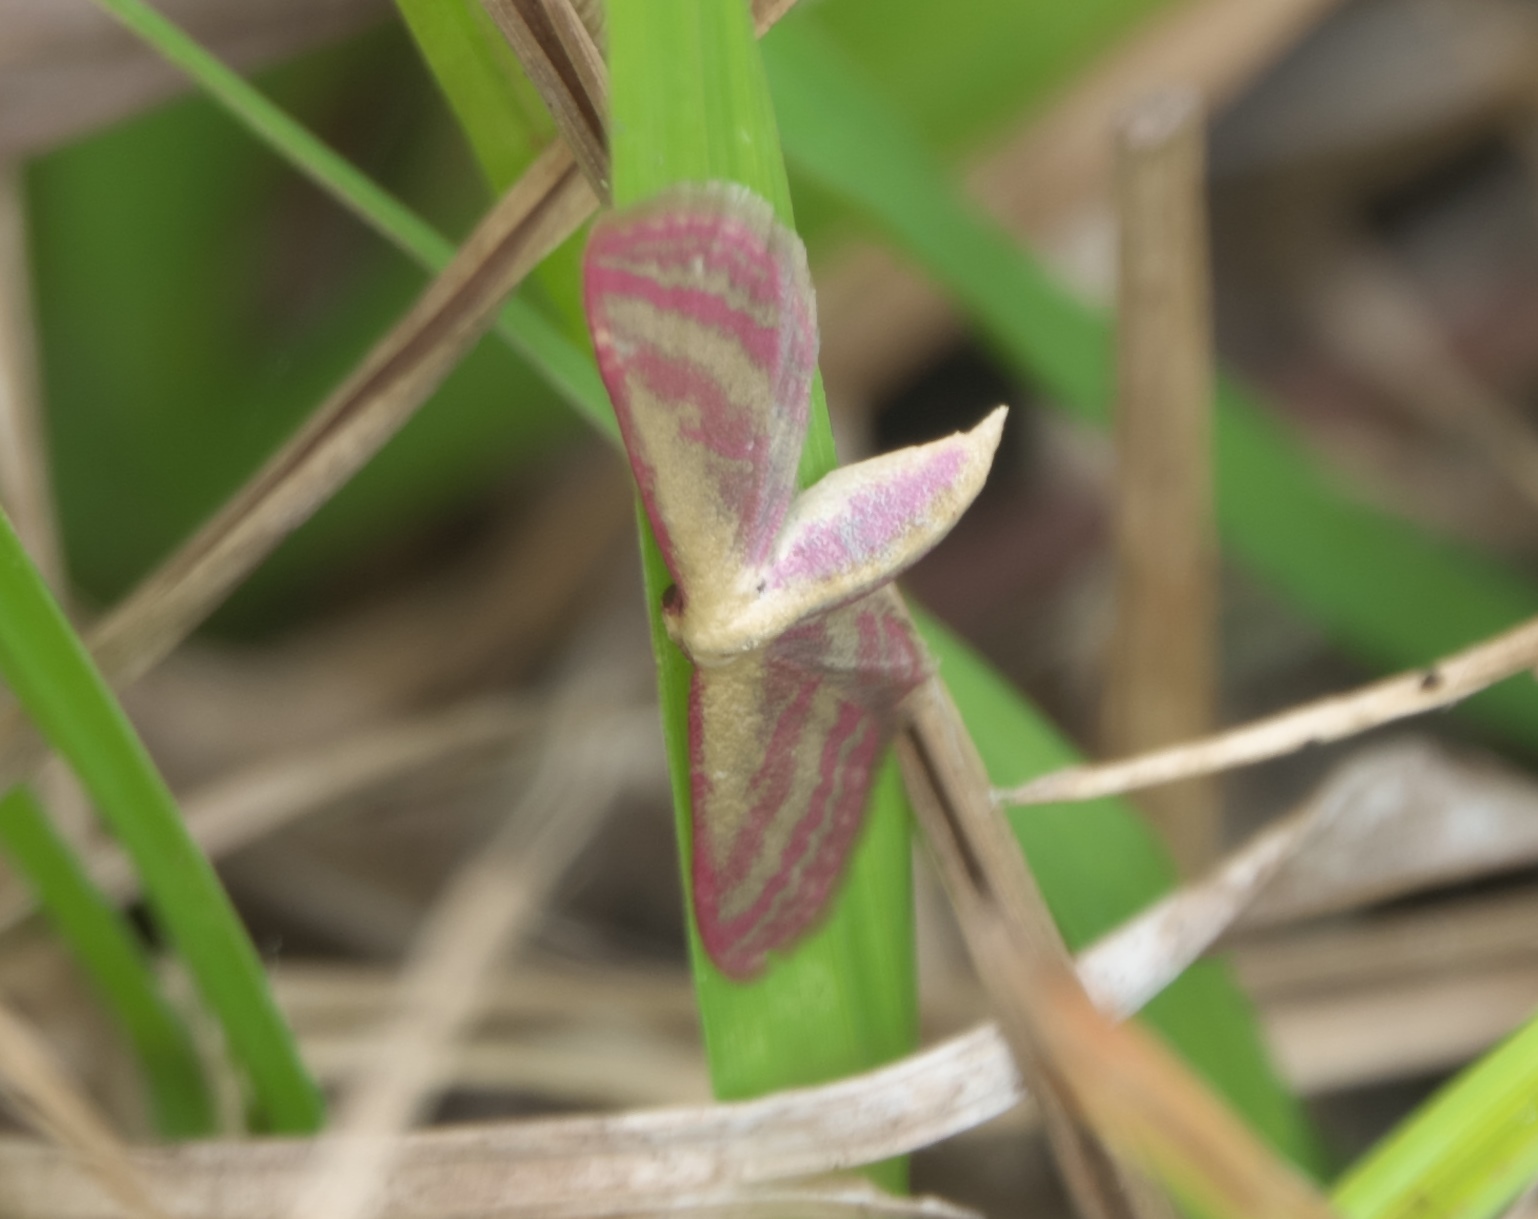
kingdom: Animalia
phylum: Arthropoda
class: Insecta
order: Lepidoptera
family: Geometridae
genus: Leptostales
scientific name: Leptostales laevitaria
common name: Raspberry wave moth
